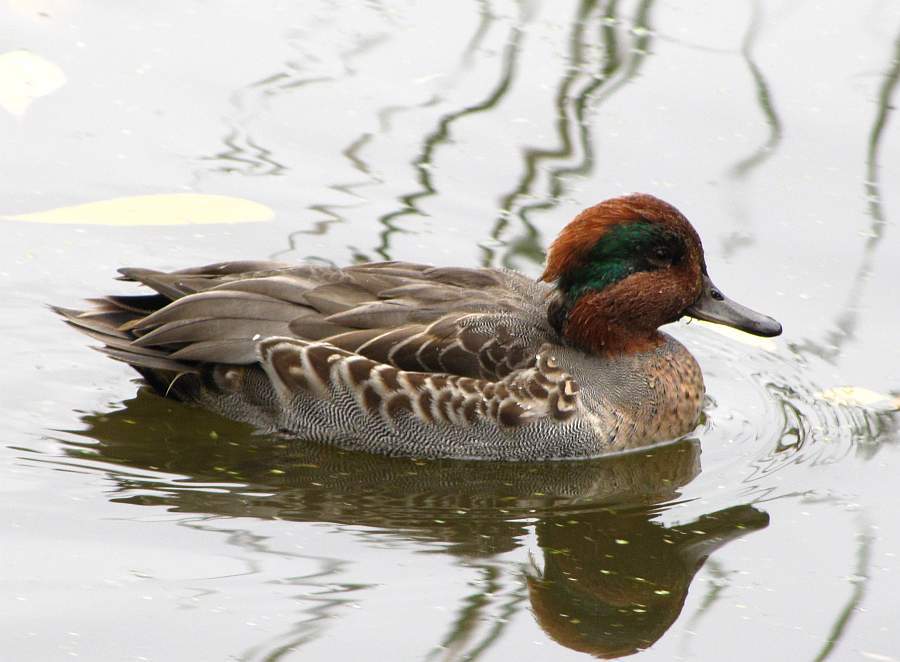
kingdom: Animalia
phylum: Chordata
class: Aves
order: Anseriformes
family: Anatidae
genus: Anas
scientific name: Anas crecca
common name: Eurasian teal
